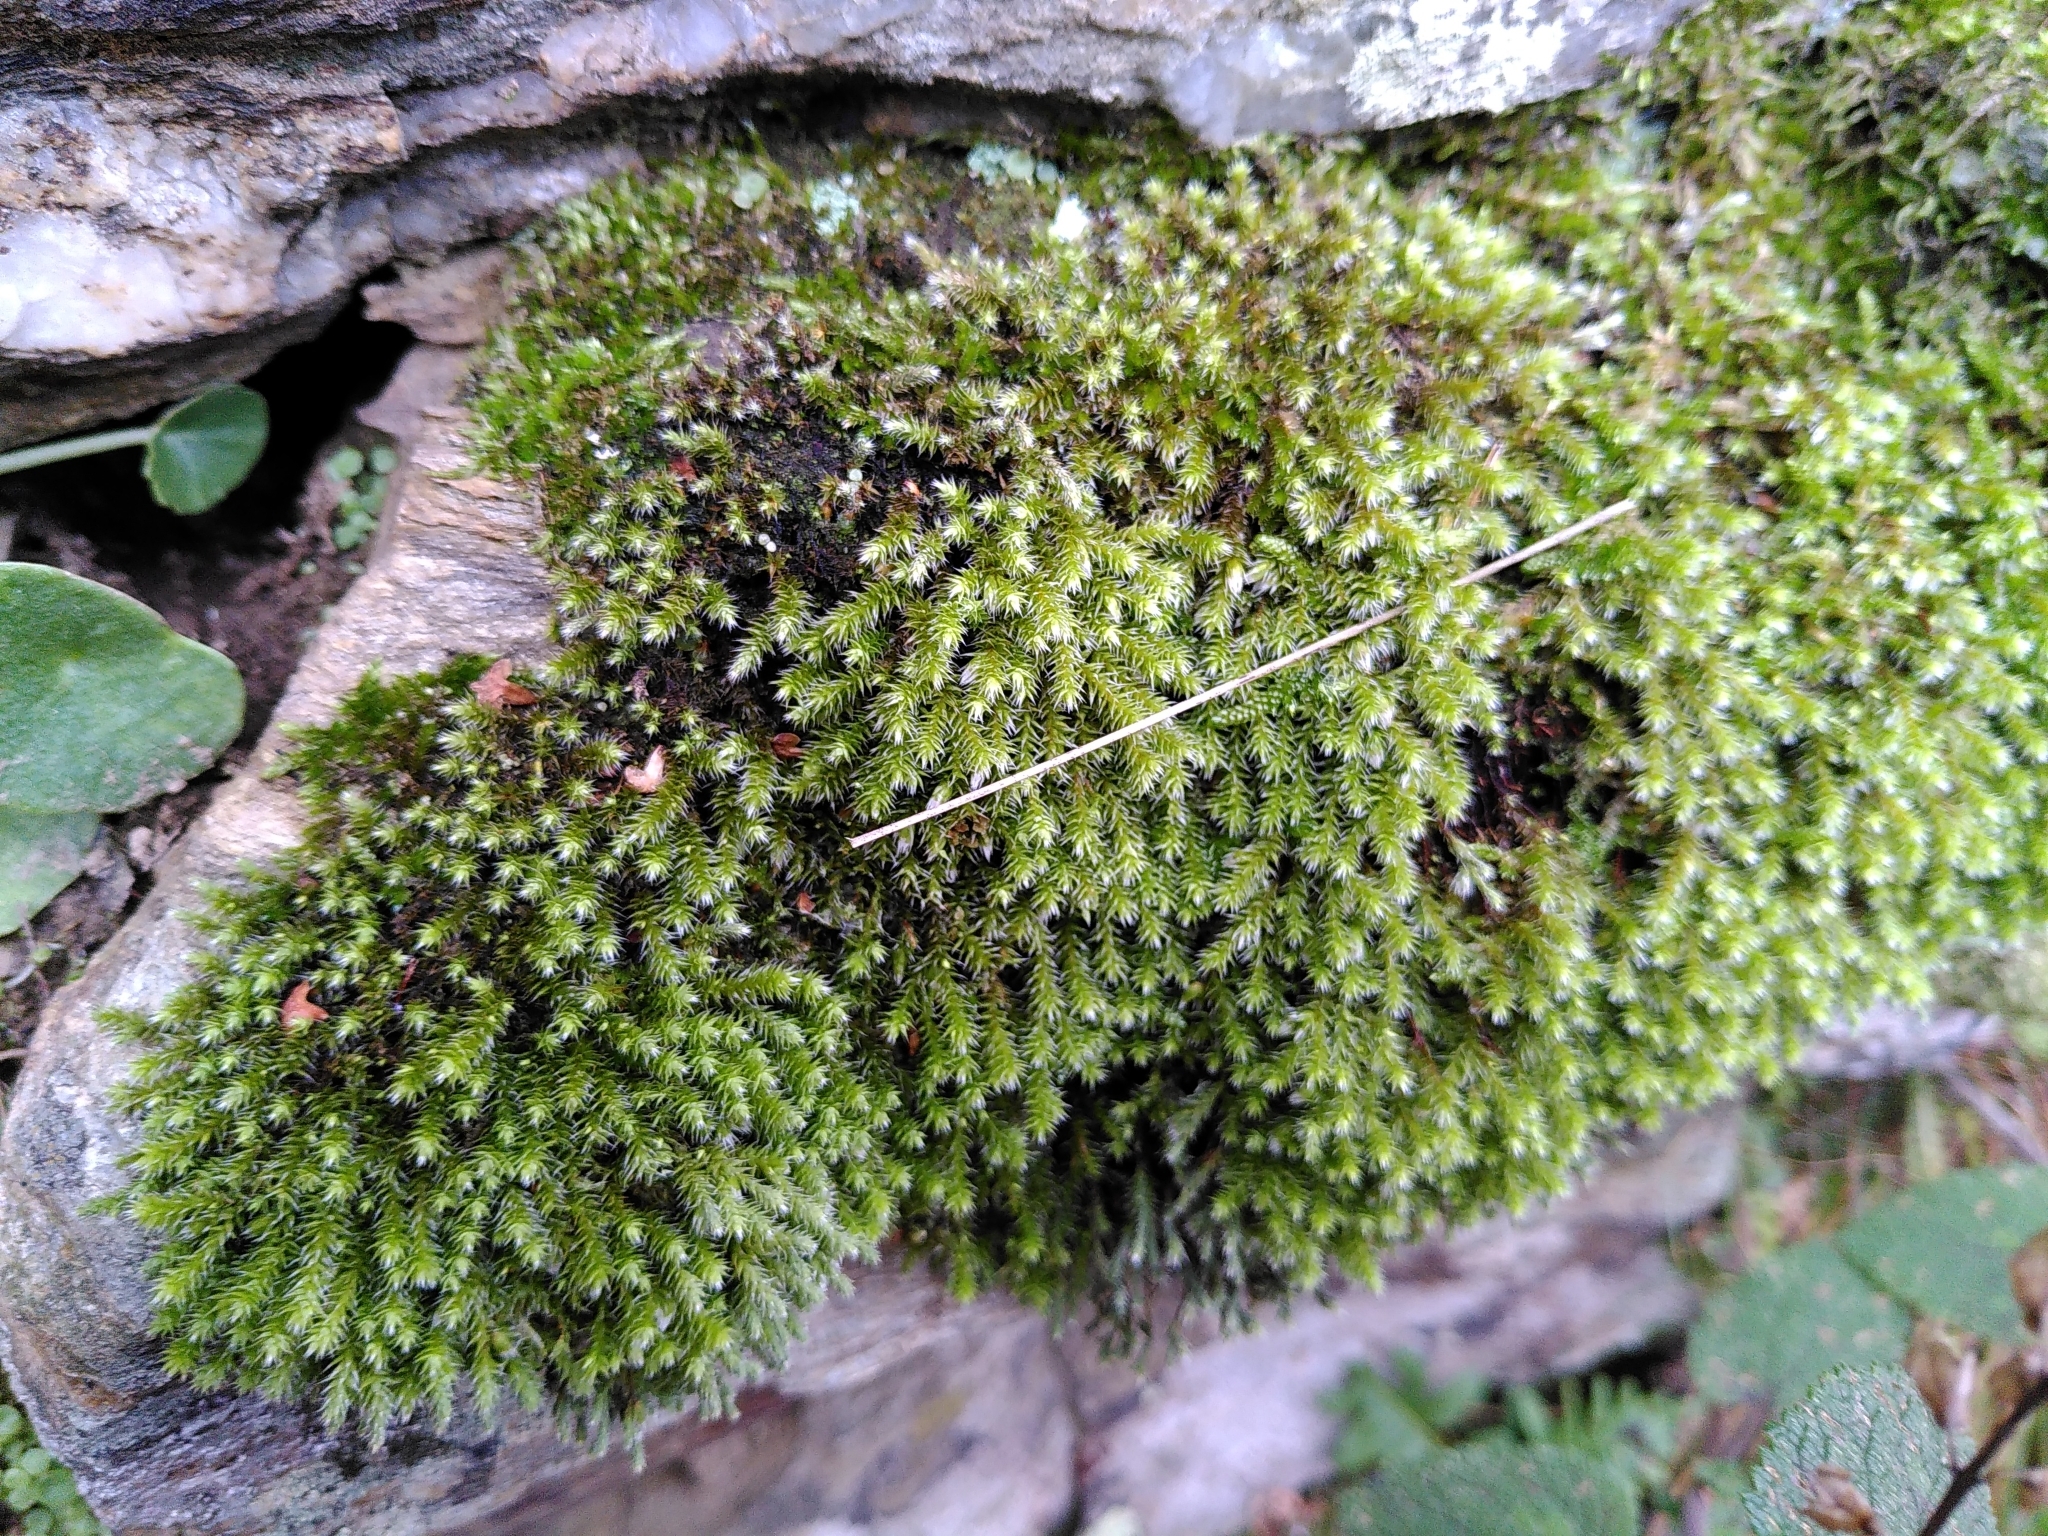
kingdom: Plantae
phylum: Bryophyta
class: Bryopsida
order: Hedwigiales
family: Hedwigiaceae
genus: Hedwigia
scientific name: Hedwigia ciliata
